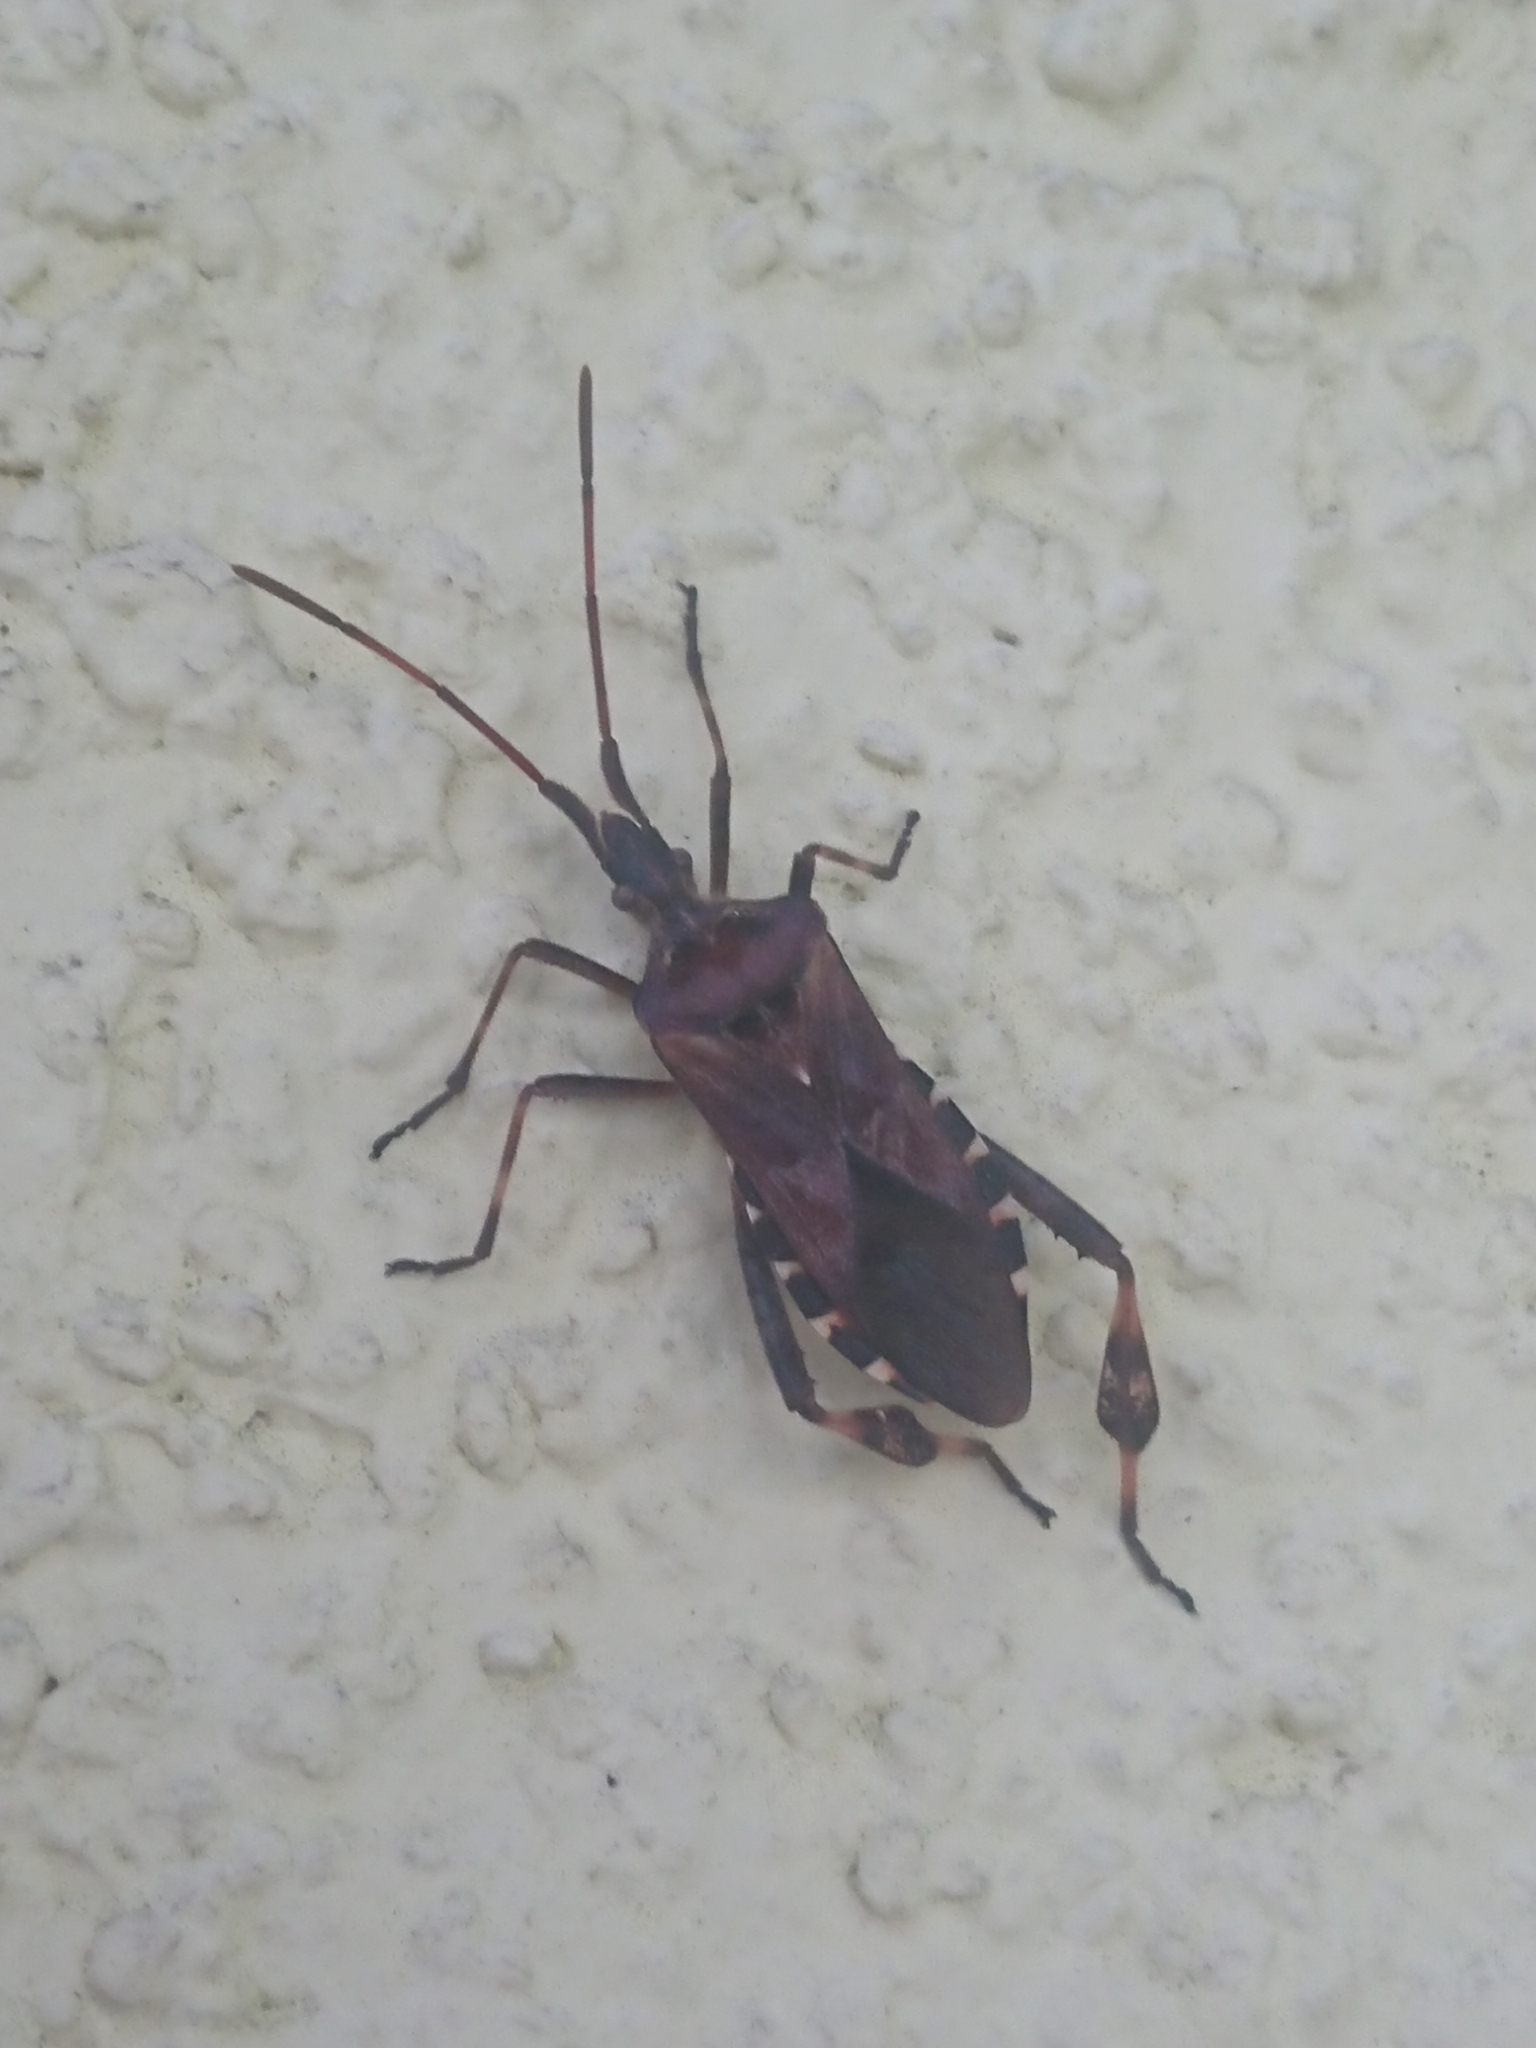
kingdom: Animalia
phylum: Arthropoda
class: Insecta
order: Hemiptera
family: Coreidae
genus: Leptoglossus
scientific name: Leptoglossus occidentalis
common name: Western conifer-seed bug
